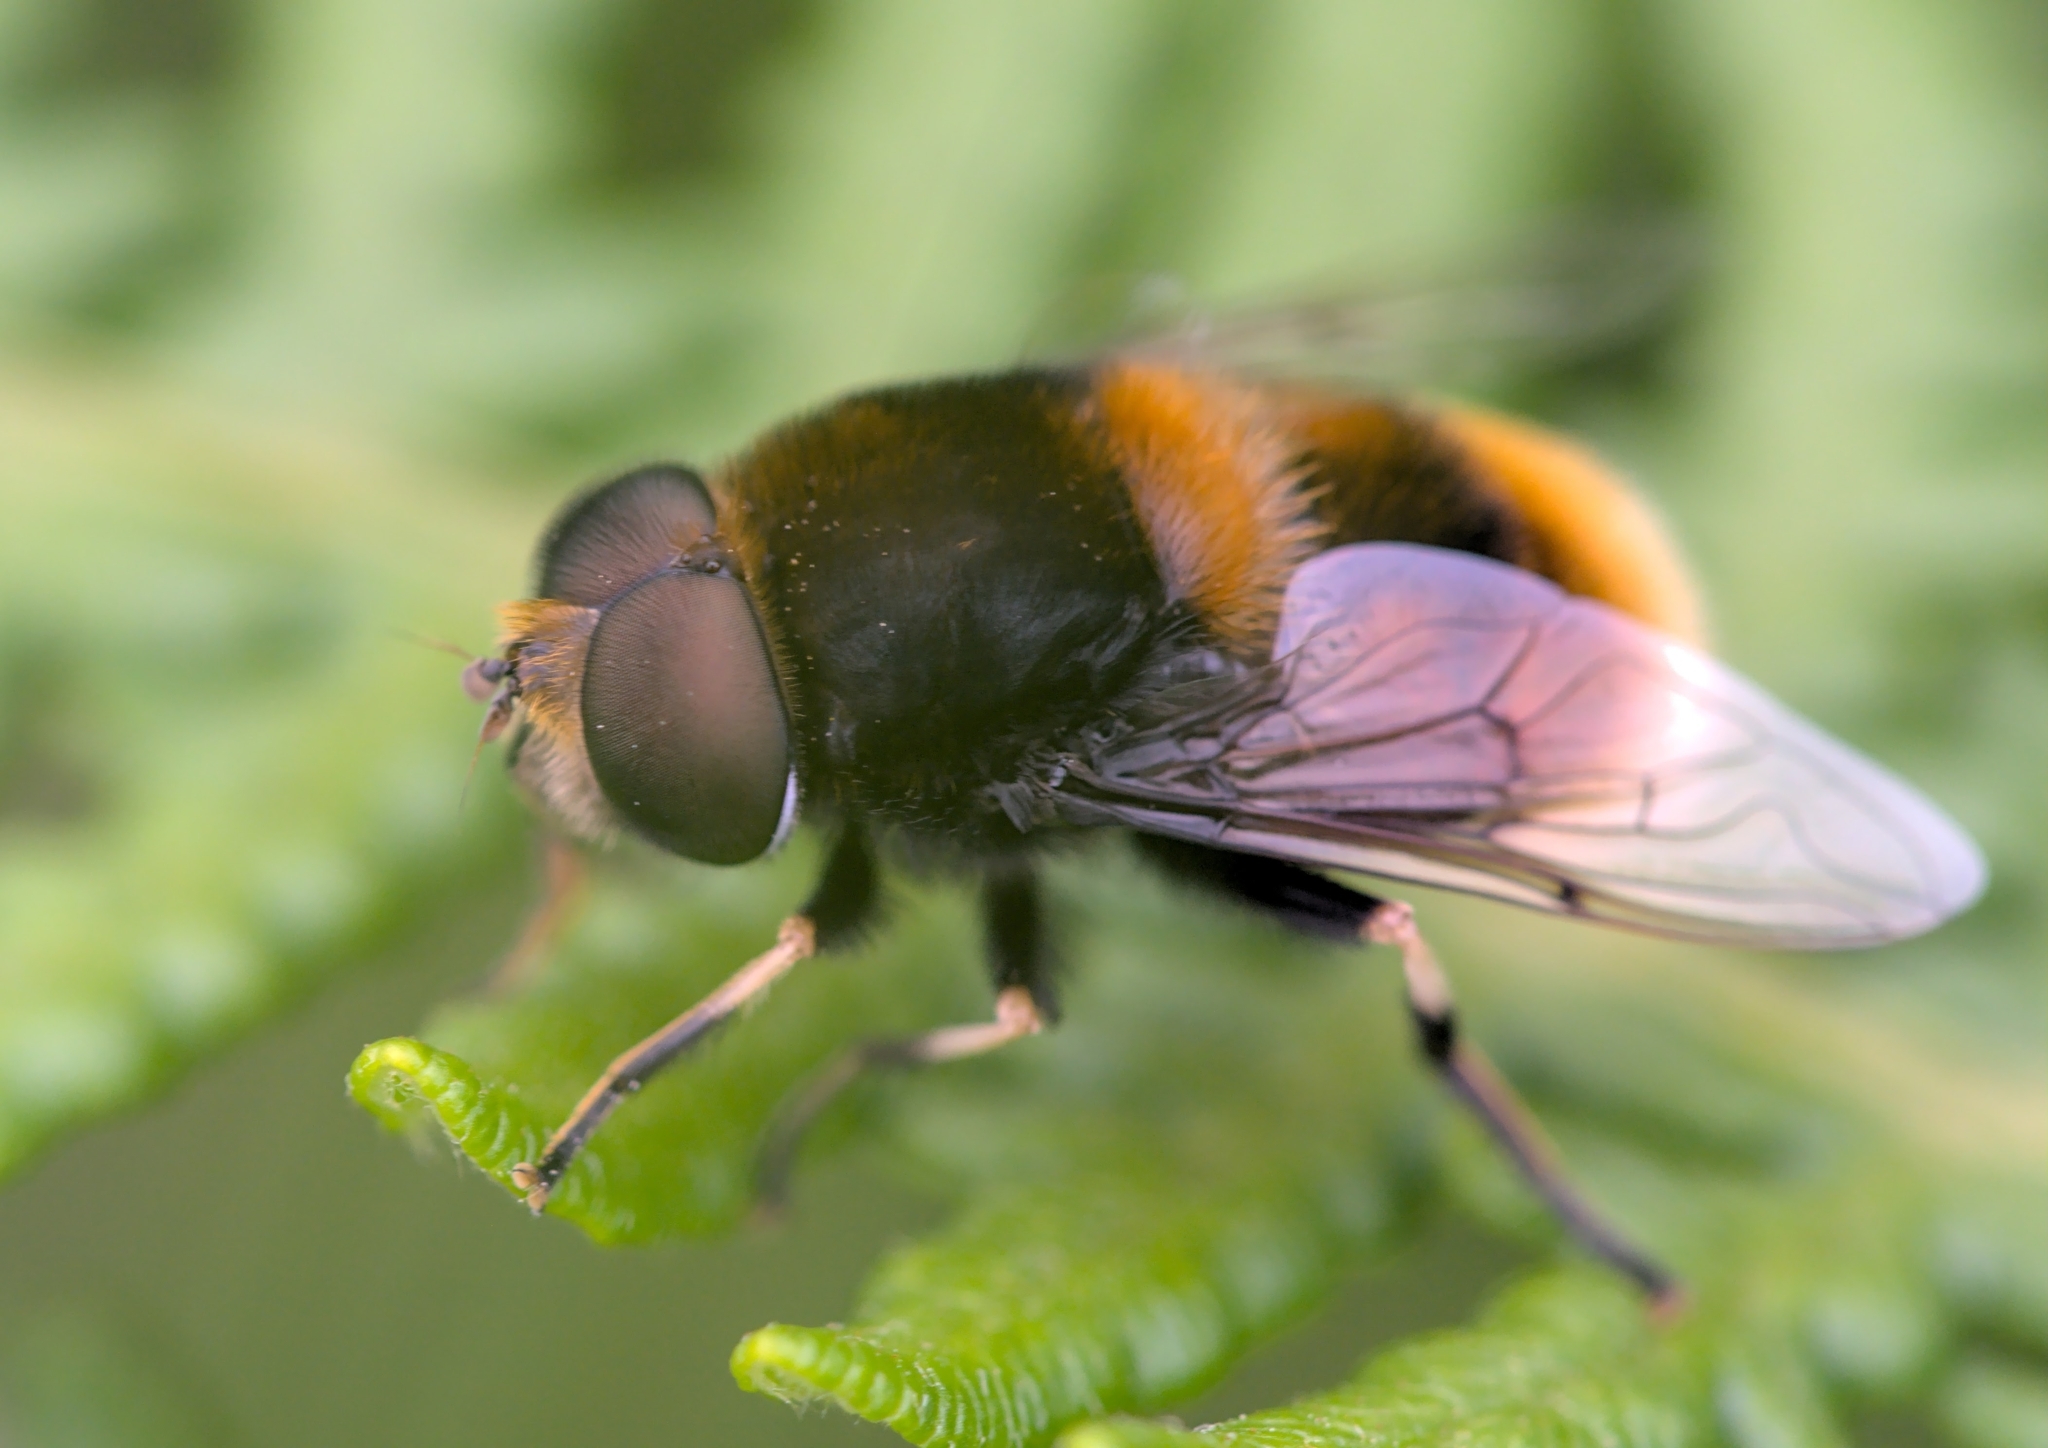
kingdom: Animalia
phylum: Arthropoda
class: Insecta
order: Diptera
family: Syrphidae
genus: Eristalis
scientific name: Eristalis intricaria
